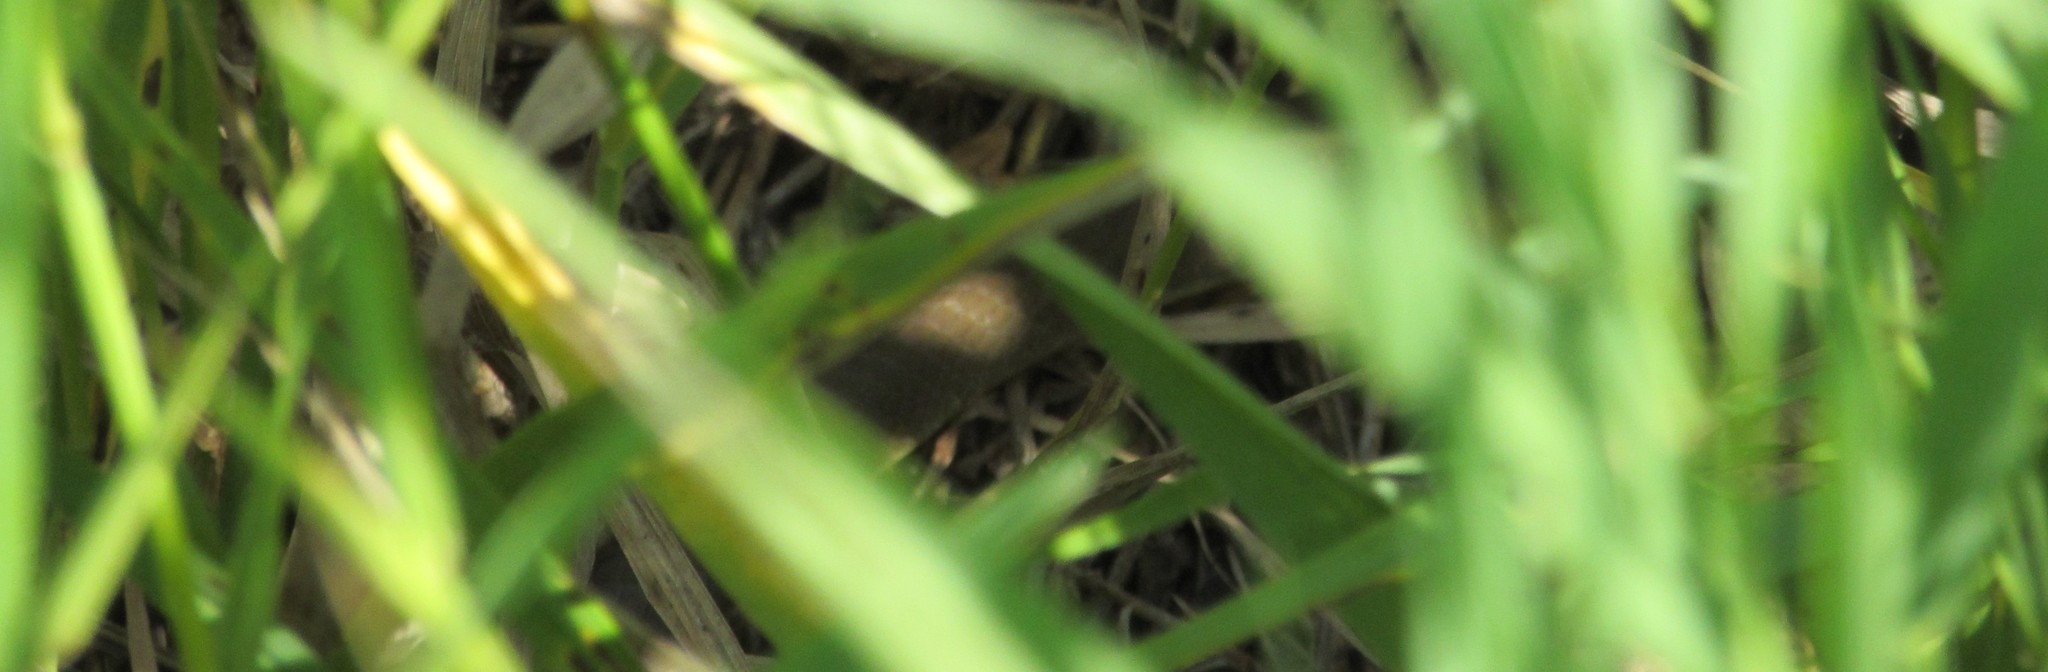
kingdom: Animalia
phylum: Chordata
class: Squamata
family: Colubridae
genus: Coluber
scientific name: Coluber constrictor
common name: Eastern racer
